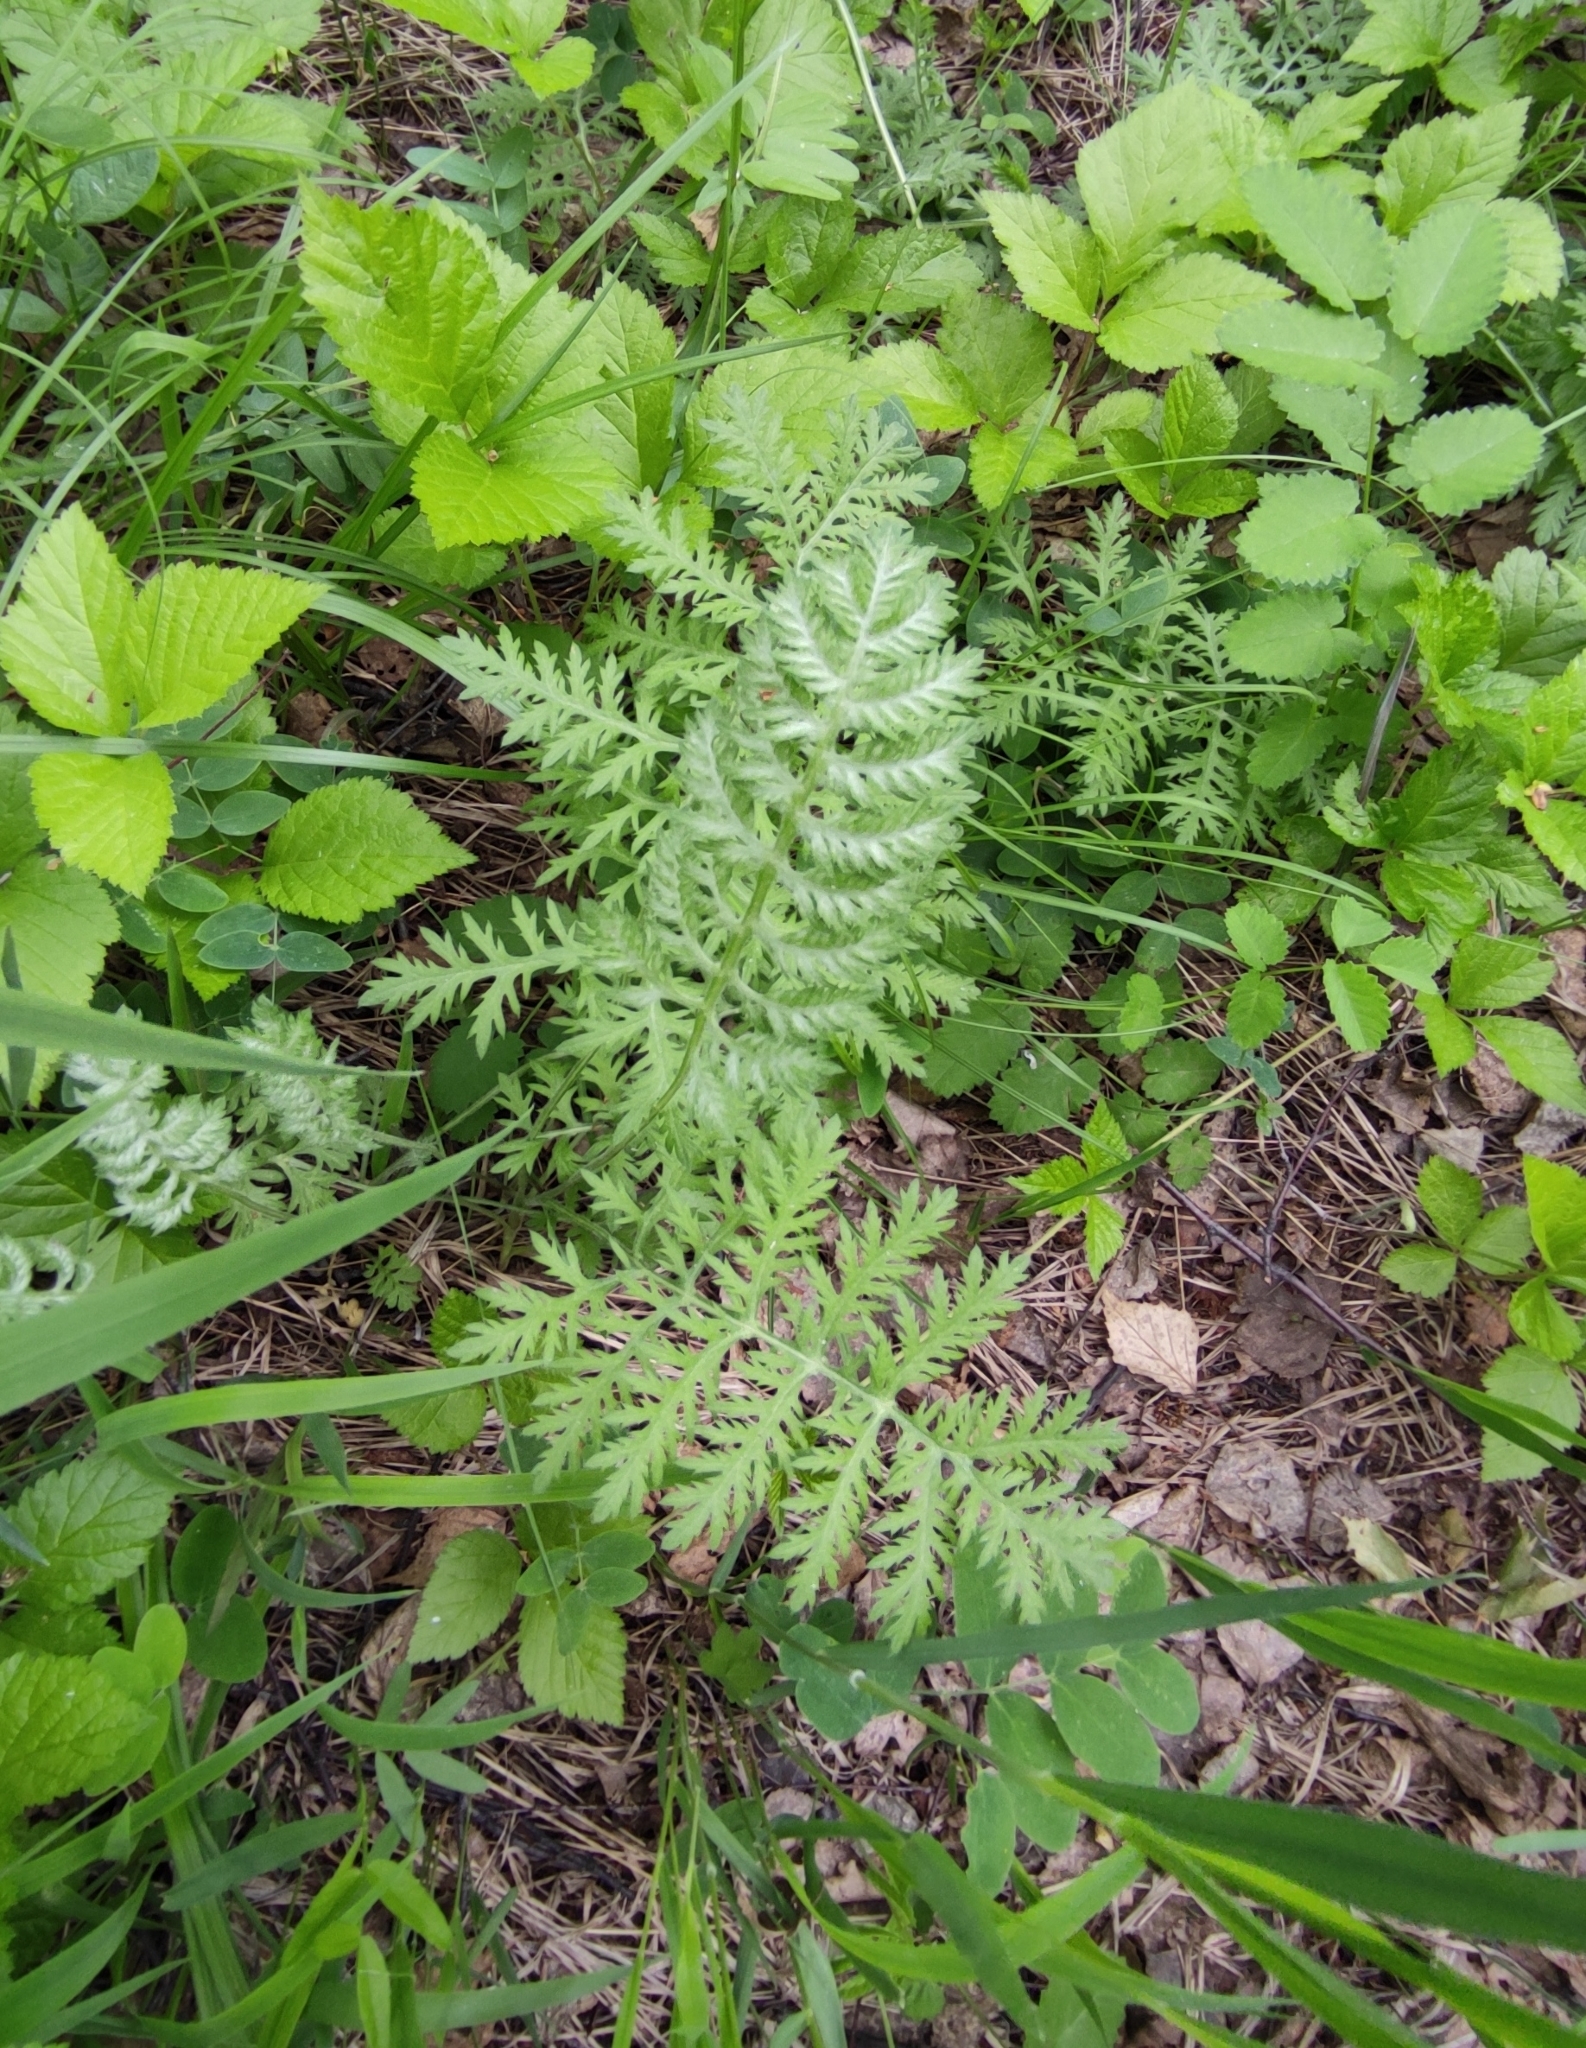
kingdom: Plantae
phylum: Tracheophyta
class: Magnoliopsida
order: Asterales
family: Asteraceae
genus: Artemisia
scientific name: Artemisia tanacetifolia
